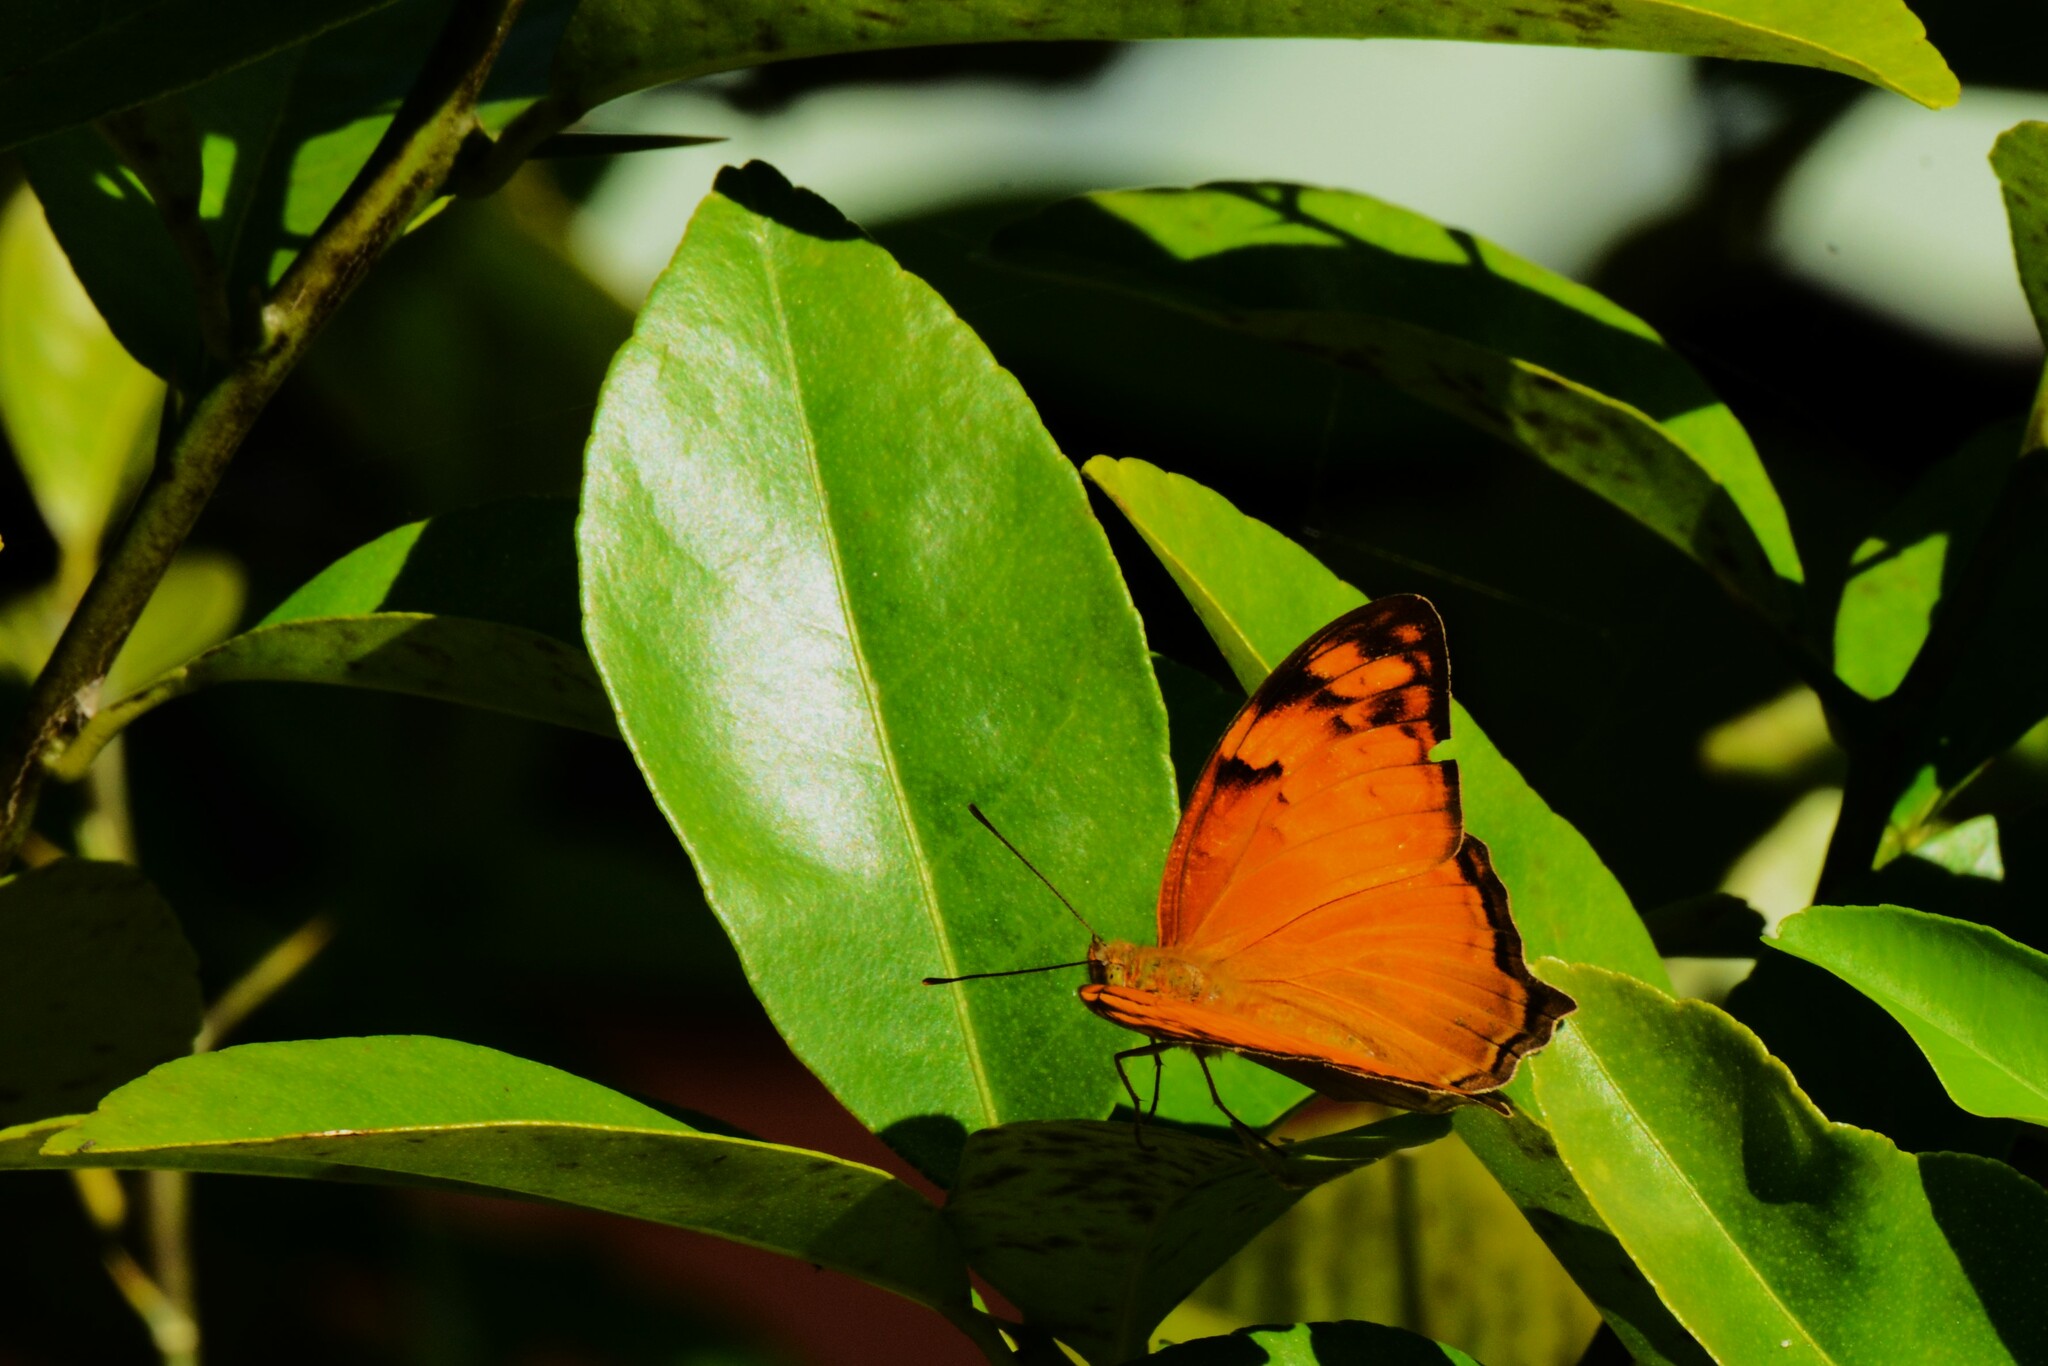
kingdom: Animalia
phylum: Arthropoda
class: Insecta
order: Lepidoptera
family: Nymphalidae
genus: Vagrans
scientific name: Vagrans egista
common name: Tailed rustic
